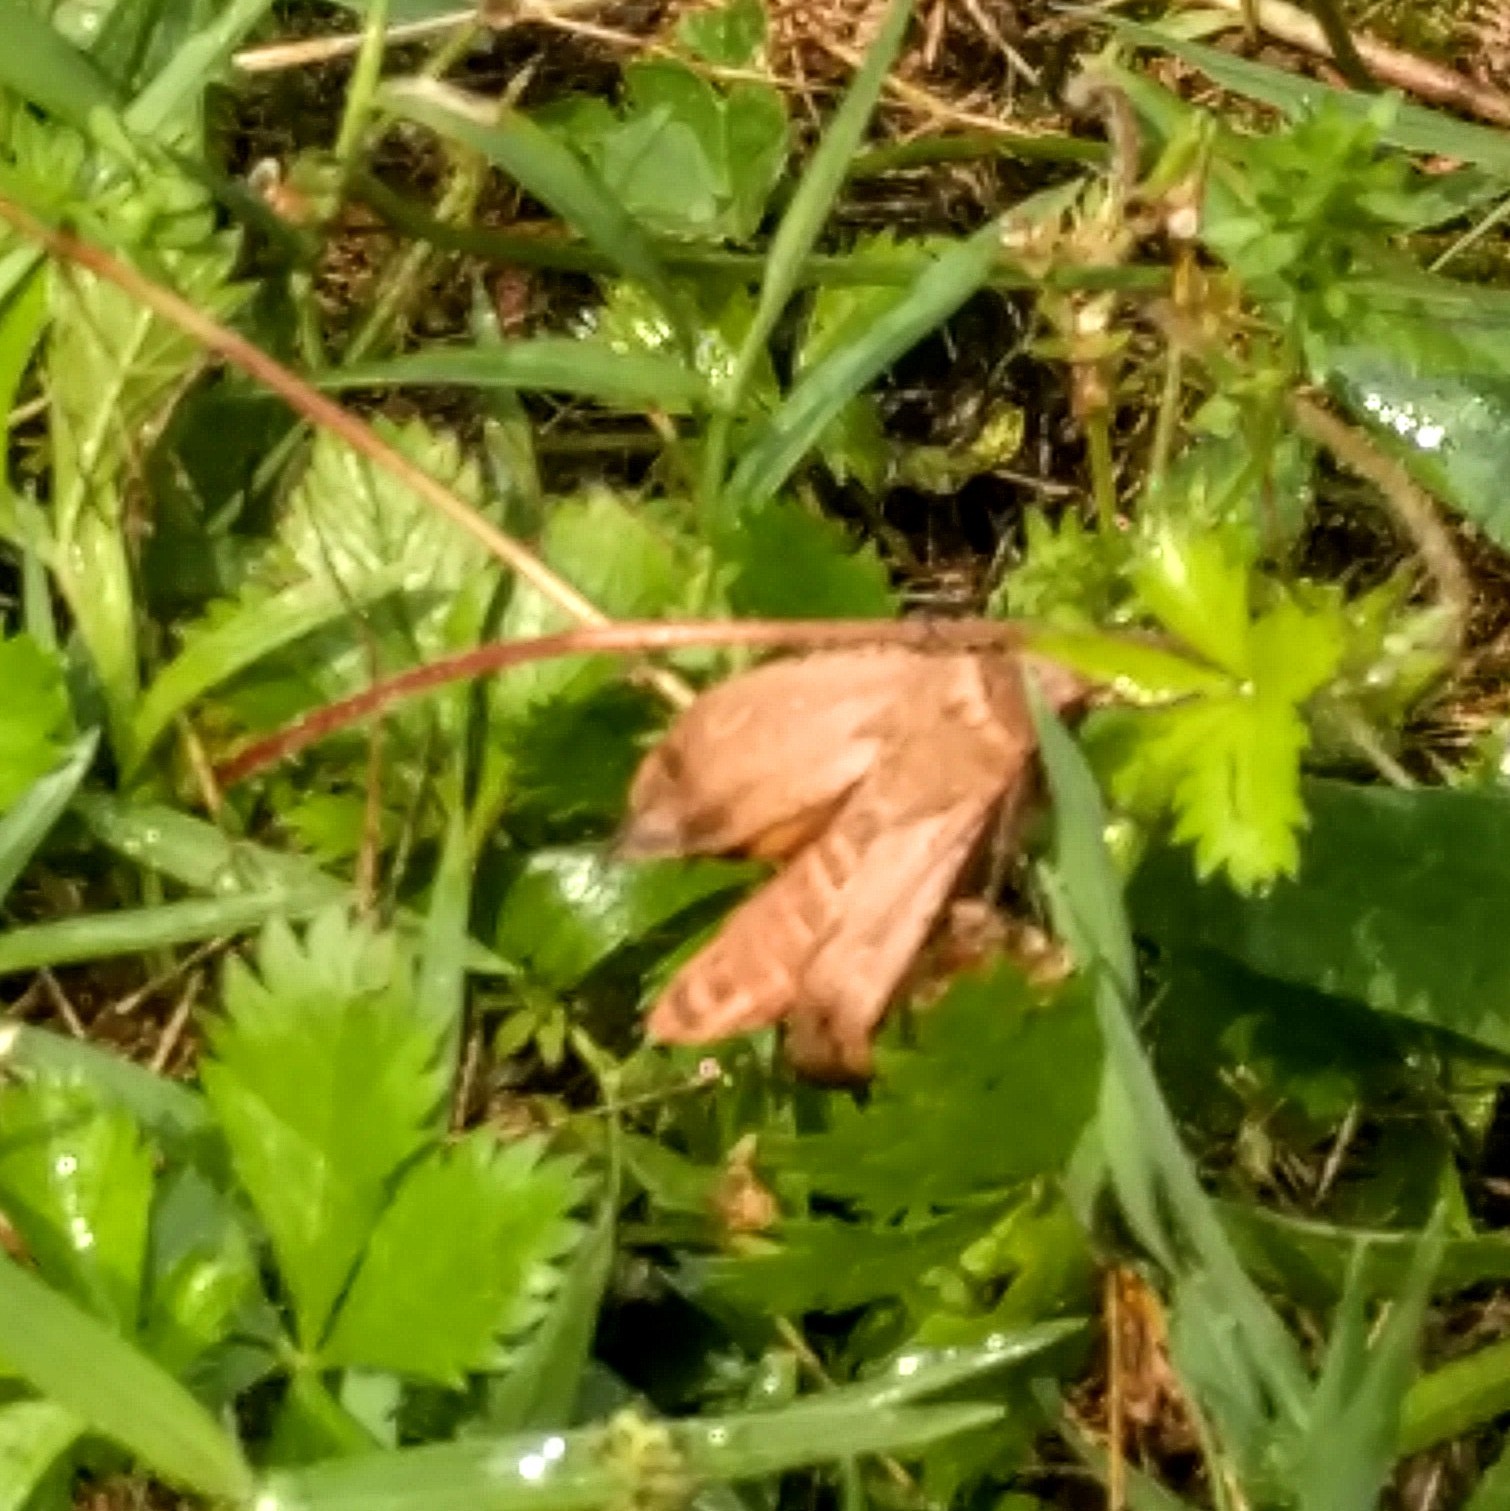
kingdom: Animalia
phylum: Arthropoda
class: Insecta
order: Lepidoptera
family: Noctuidae
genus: Noctua
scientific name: Noctua pronuba
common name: Large yellow underwing
